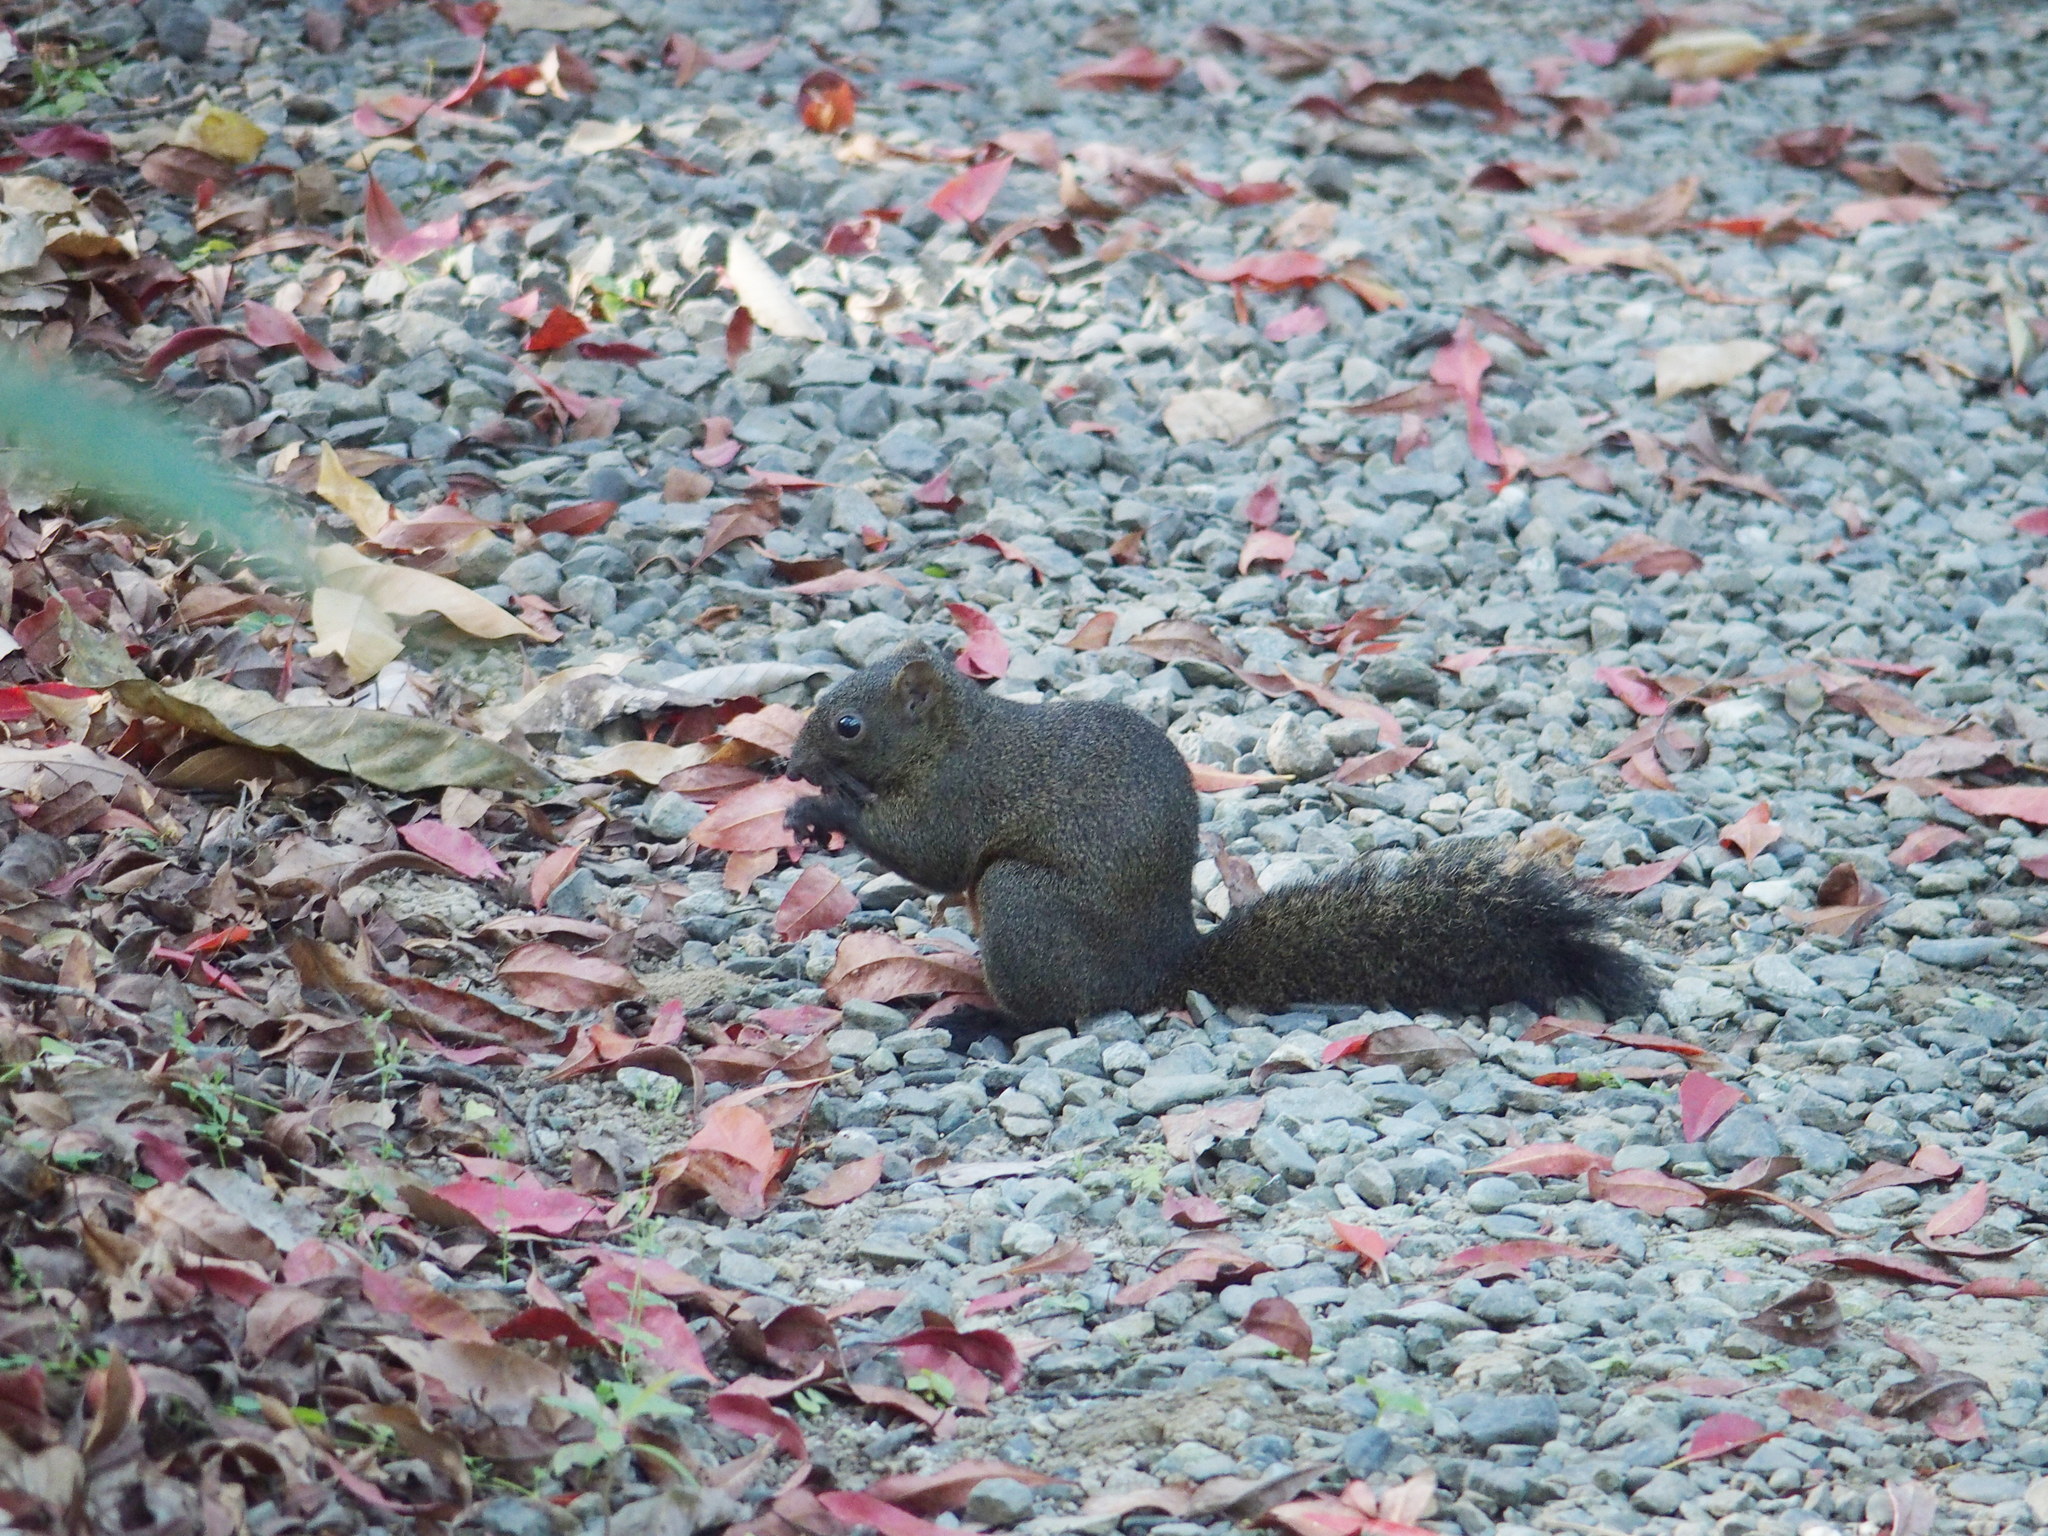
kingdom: Animalia
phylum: Chordata
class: Mammalia
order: Rodentia
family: Sciuridae
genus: Callosciurus
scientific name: Callosciurus erythraeus
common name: Pallas's squirrel
